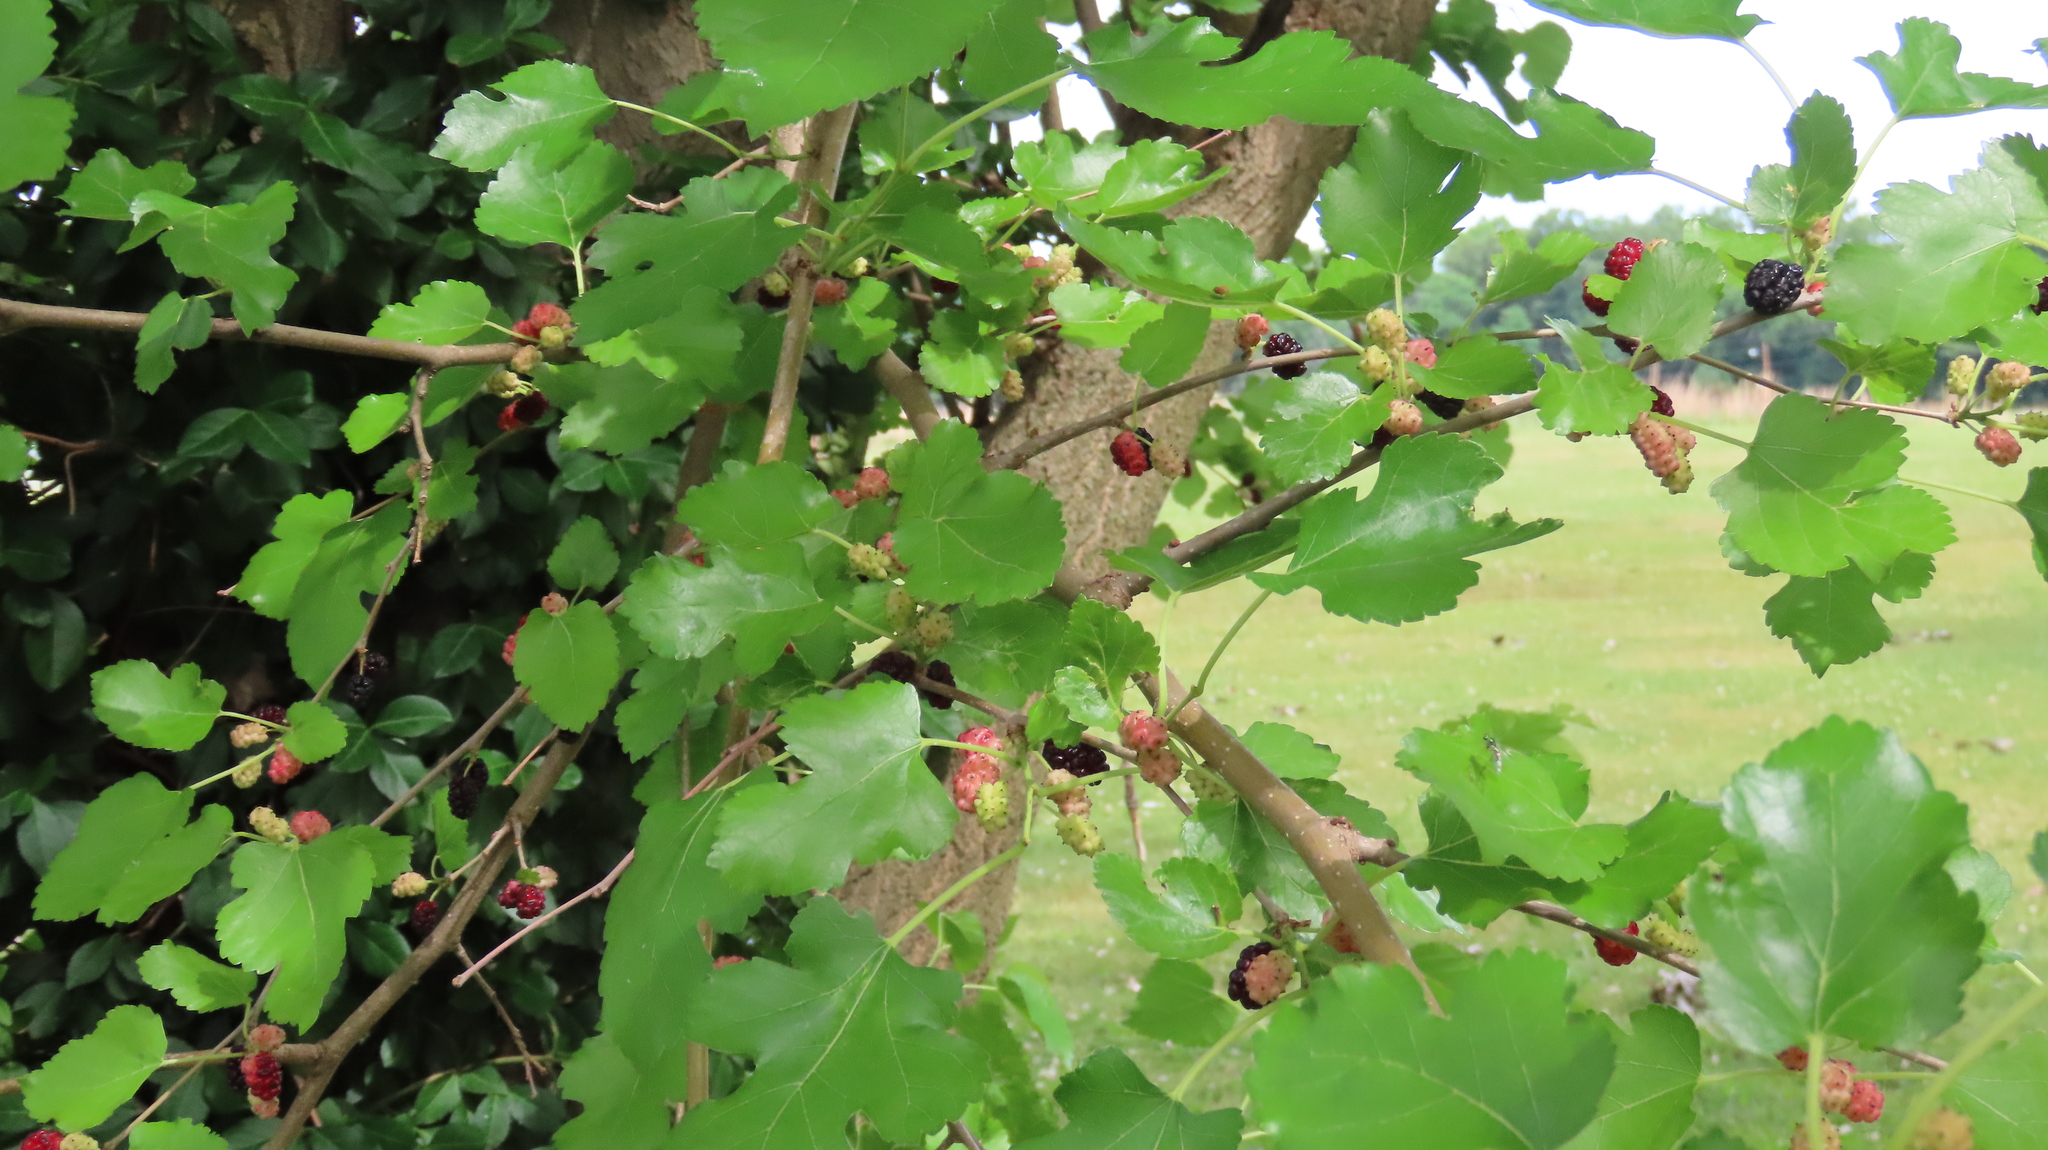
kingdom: Plantae
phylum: Tracheophyta
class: Magnoliopsida
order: Rosales
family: Moraceae
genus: Morus
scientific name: Morus alba
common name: White mulberry
